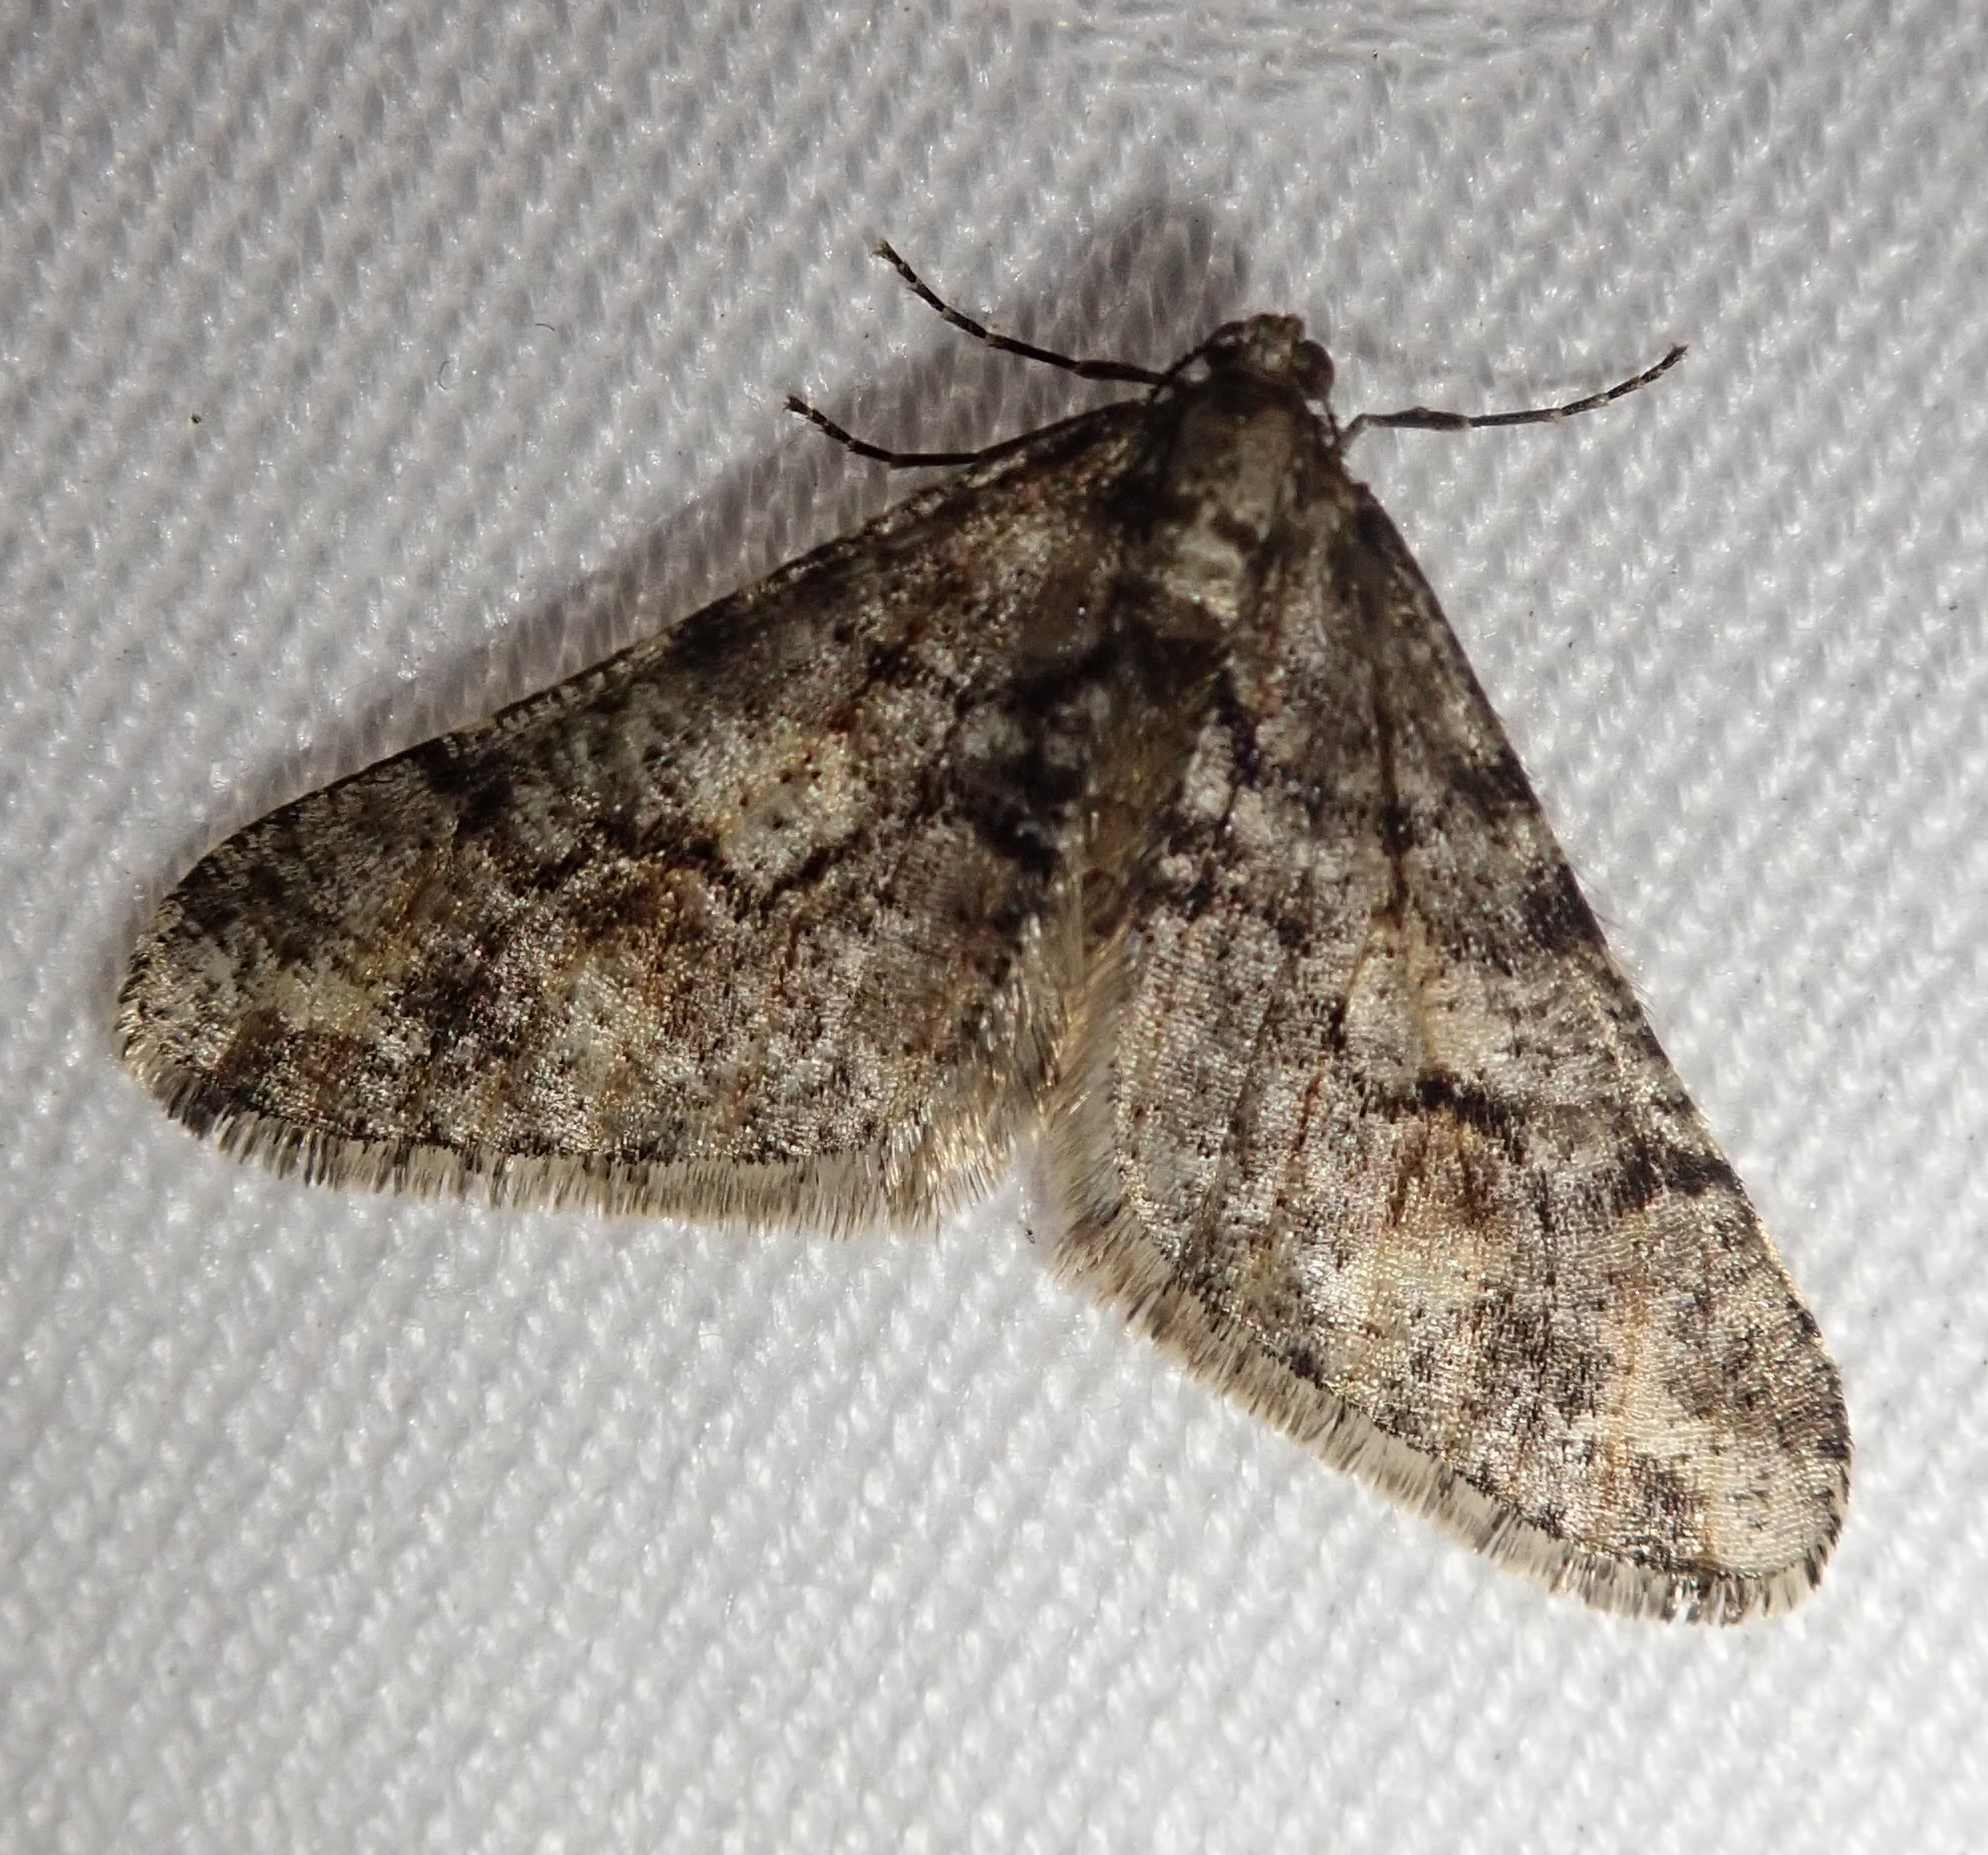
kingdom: Animalia
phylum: Arthropoda
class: Insecta
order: Lepidoptera
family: Geometridae
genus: Agriopis
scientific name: Agriopis leucophaearia
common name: Spring usher
